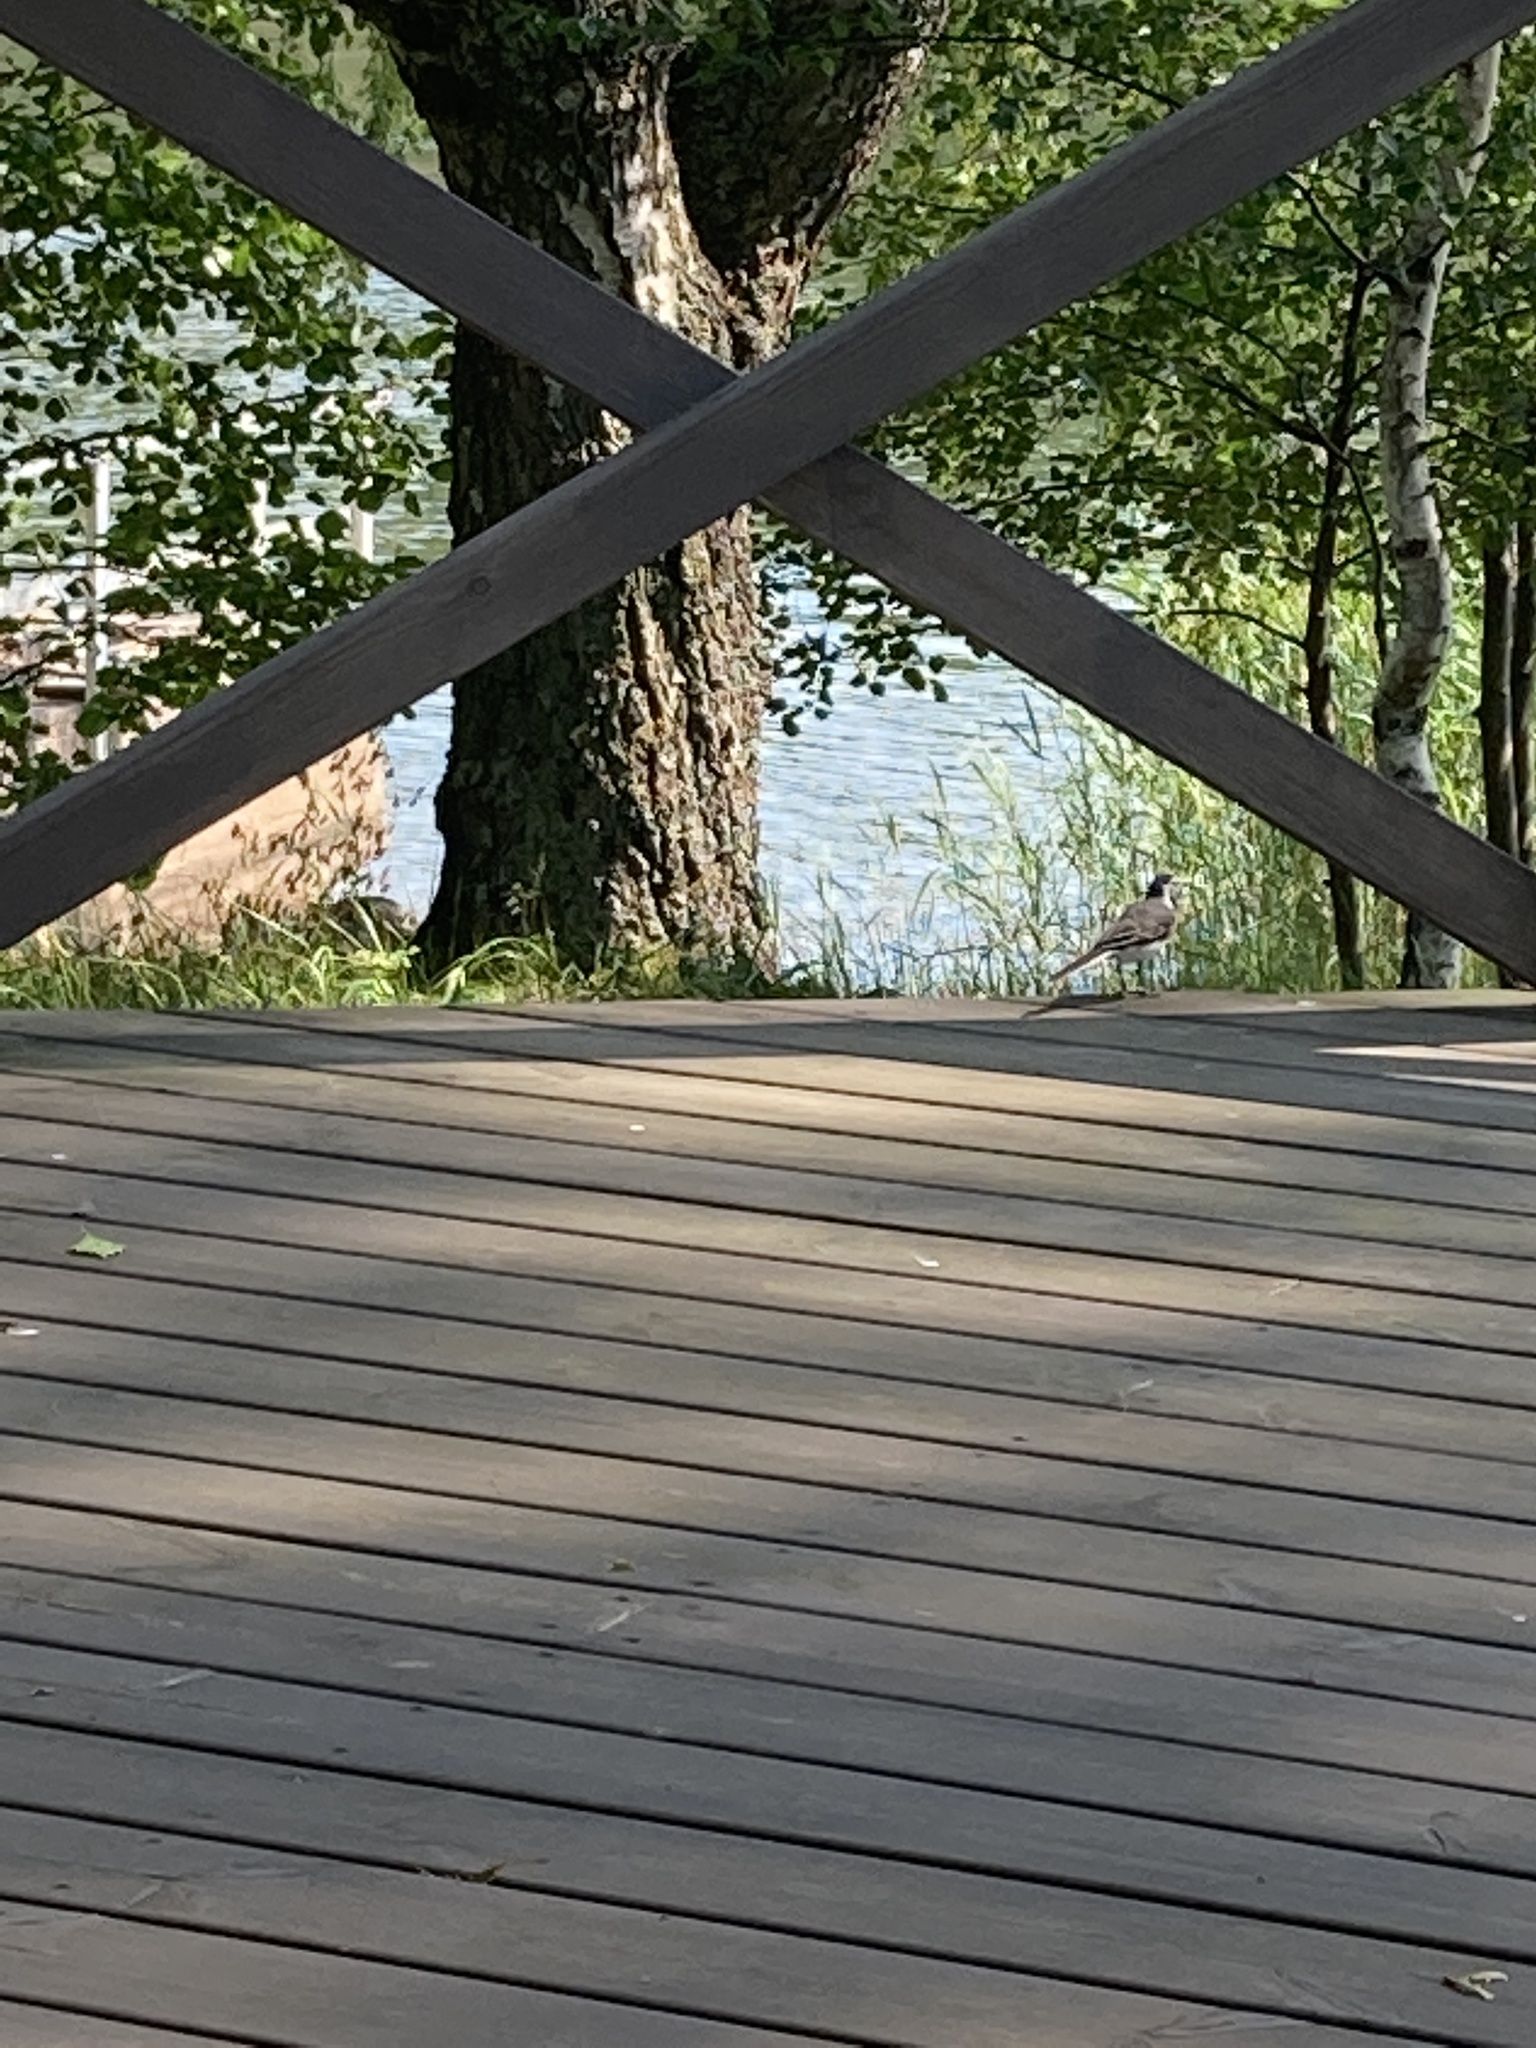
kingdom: Animalia
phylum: Chordata
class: Aves
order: Passeriformes
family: Motacillidae
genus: Motacilla
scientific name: Motacilla alba
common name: White wagtail
